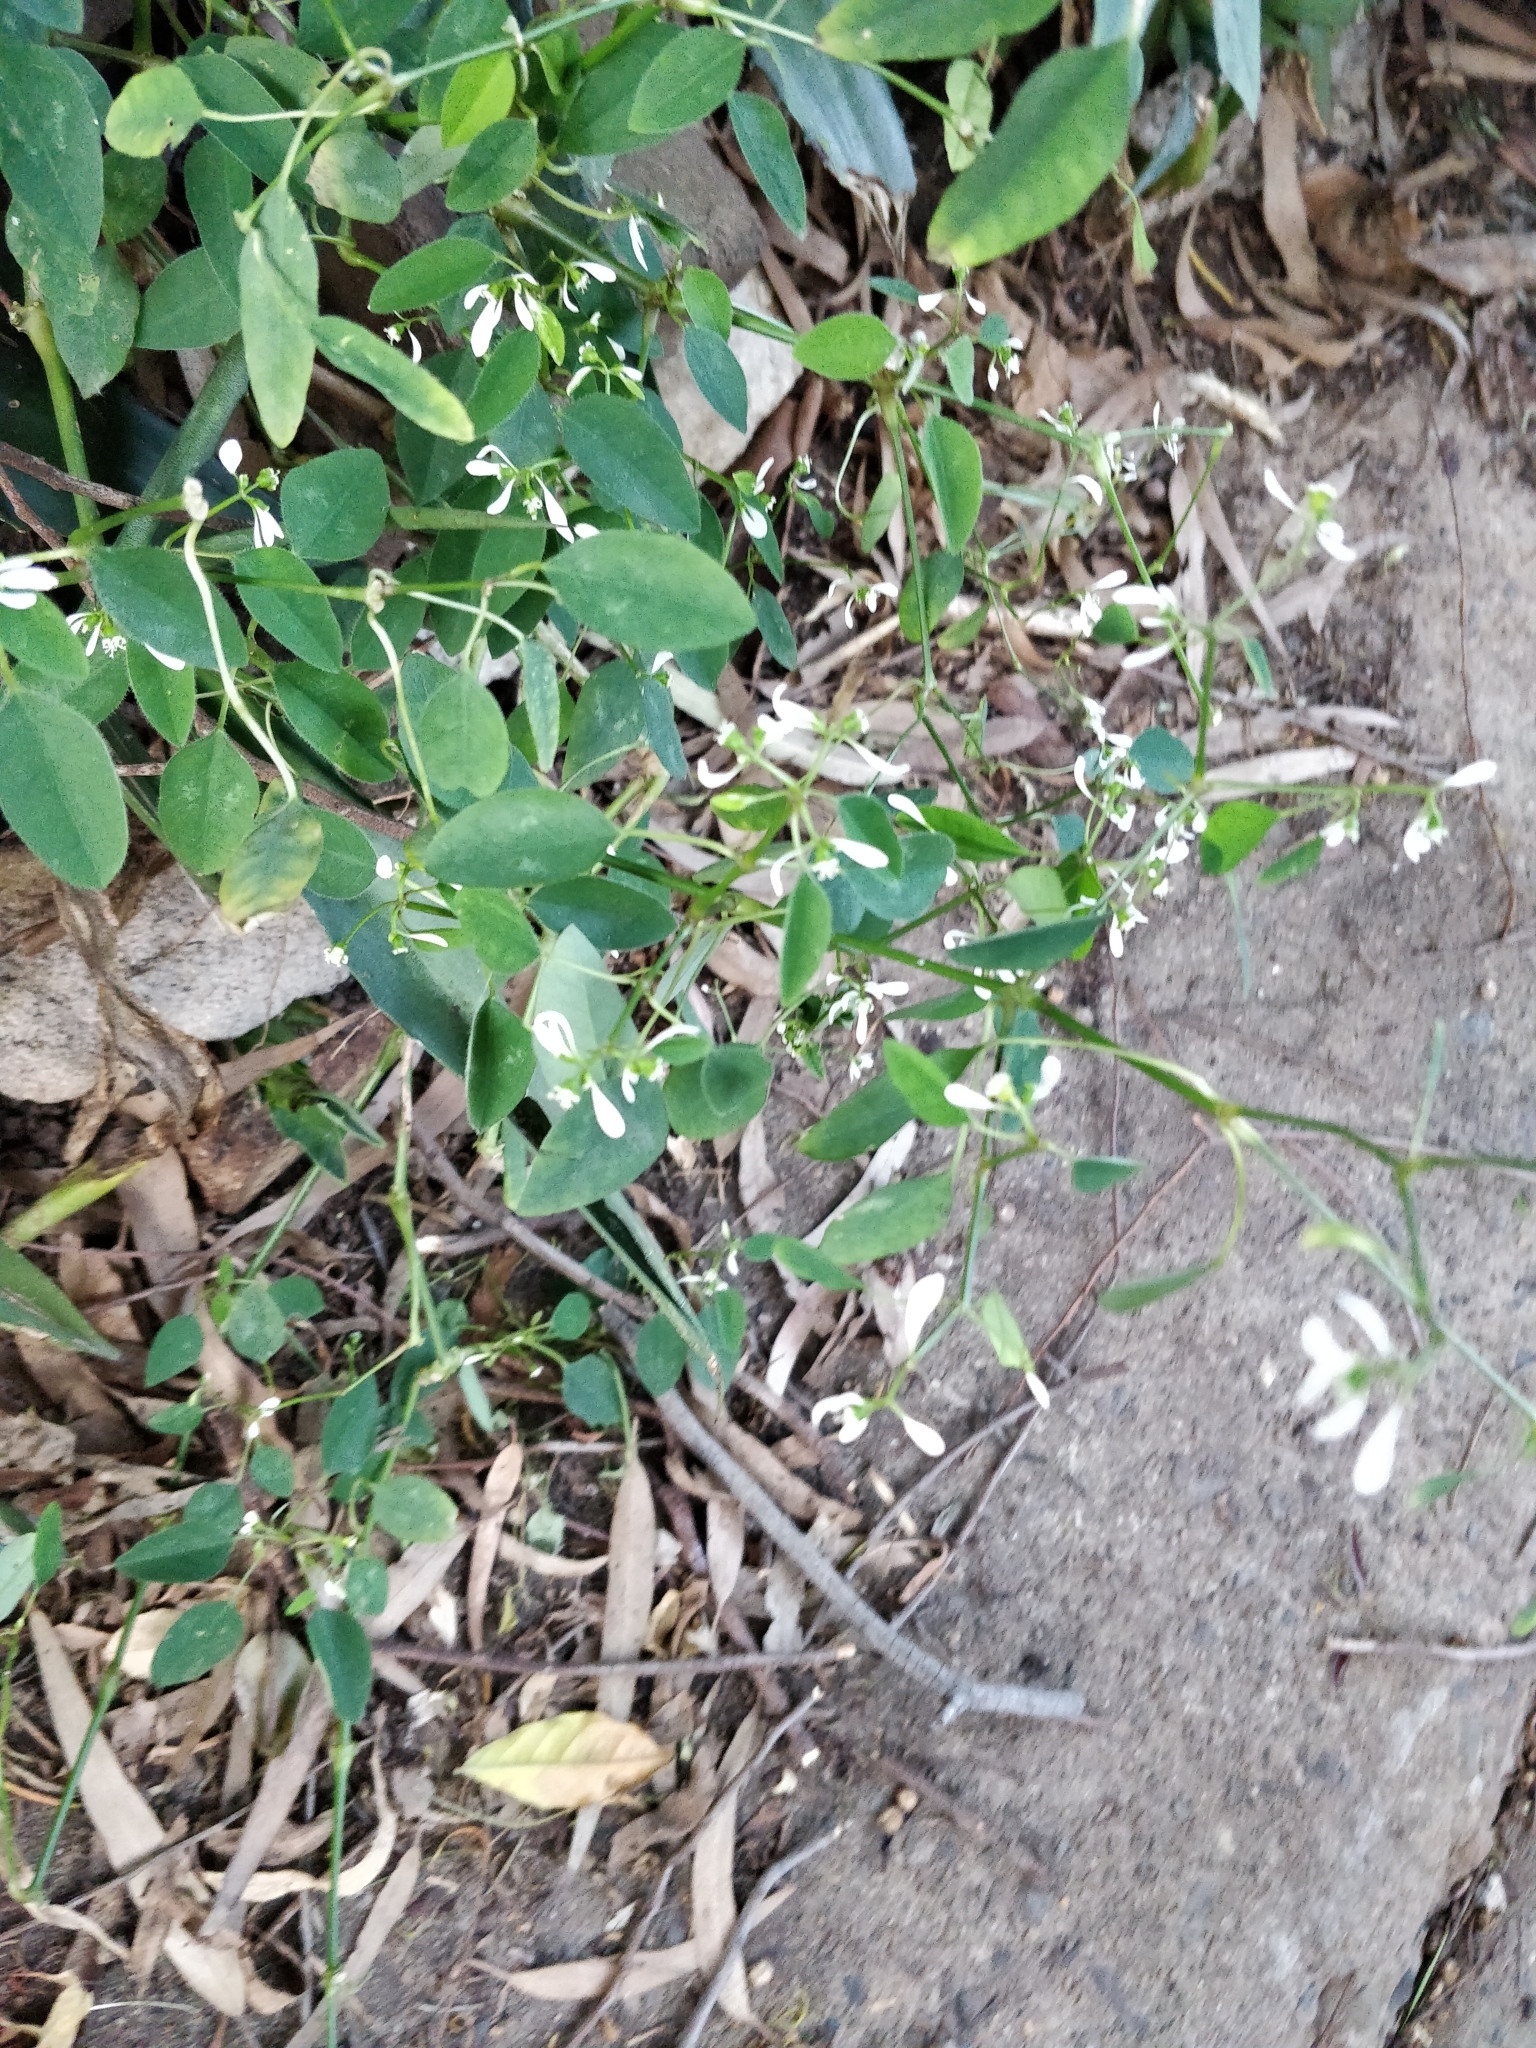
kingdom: Plantae
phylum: Tracheophyta
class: Magnoliopsida
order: Malpighiales
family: Euphorbiaceae
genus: Euphorbia
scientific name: Euphorbia graminea
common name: Grassleaf spurge
